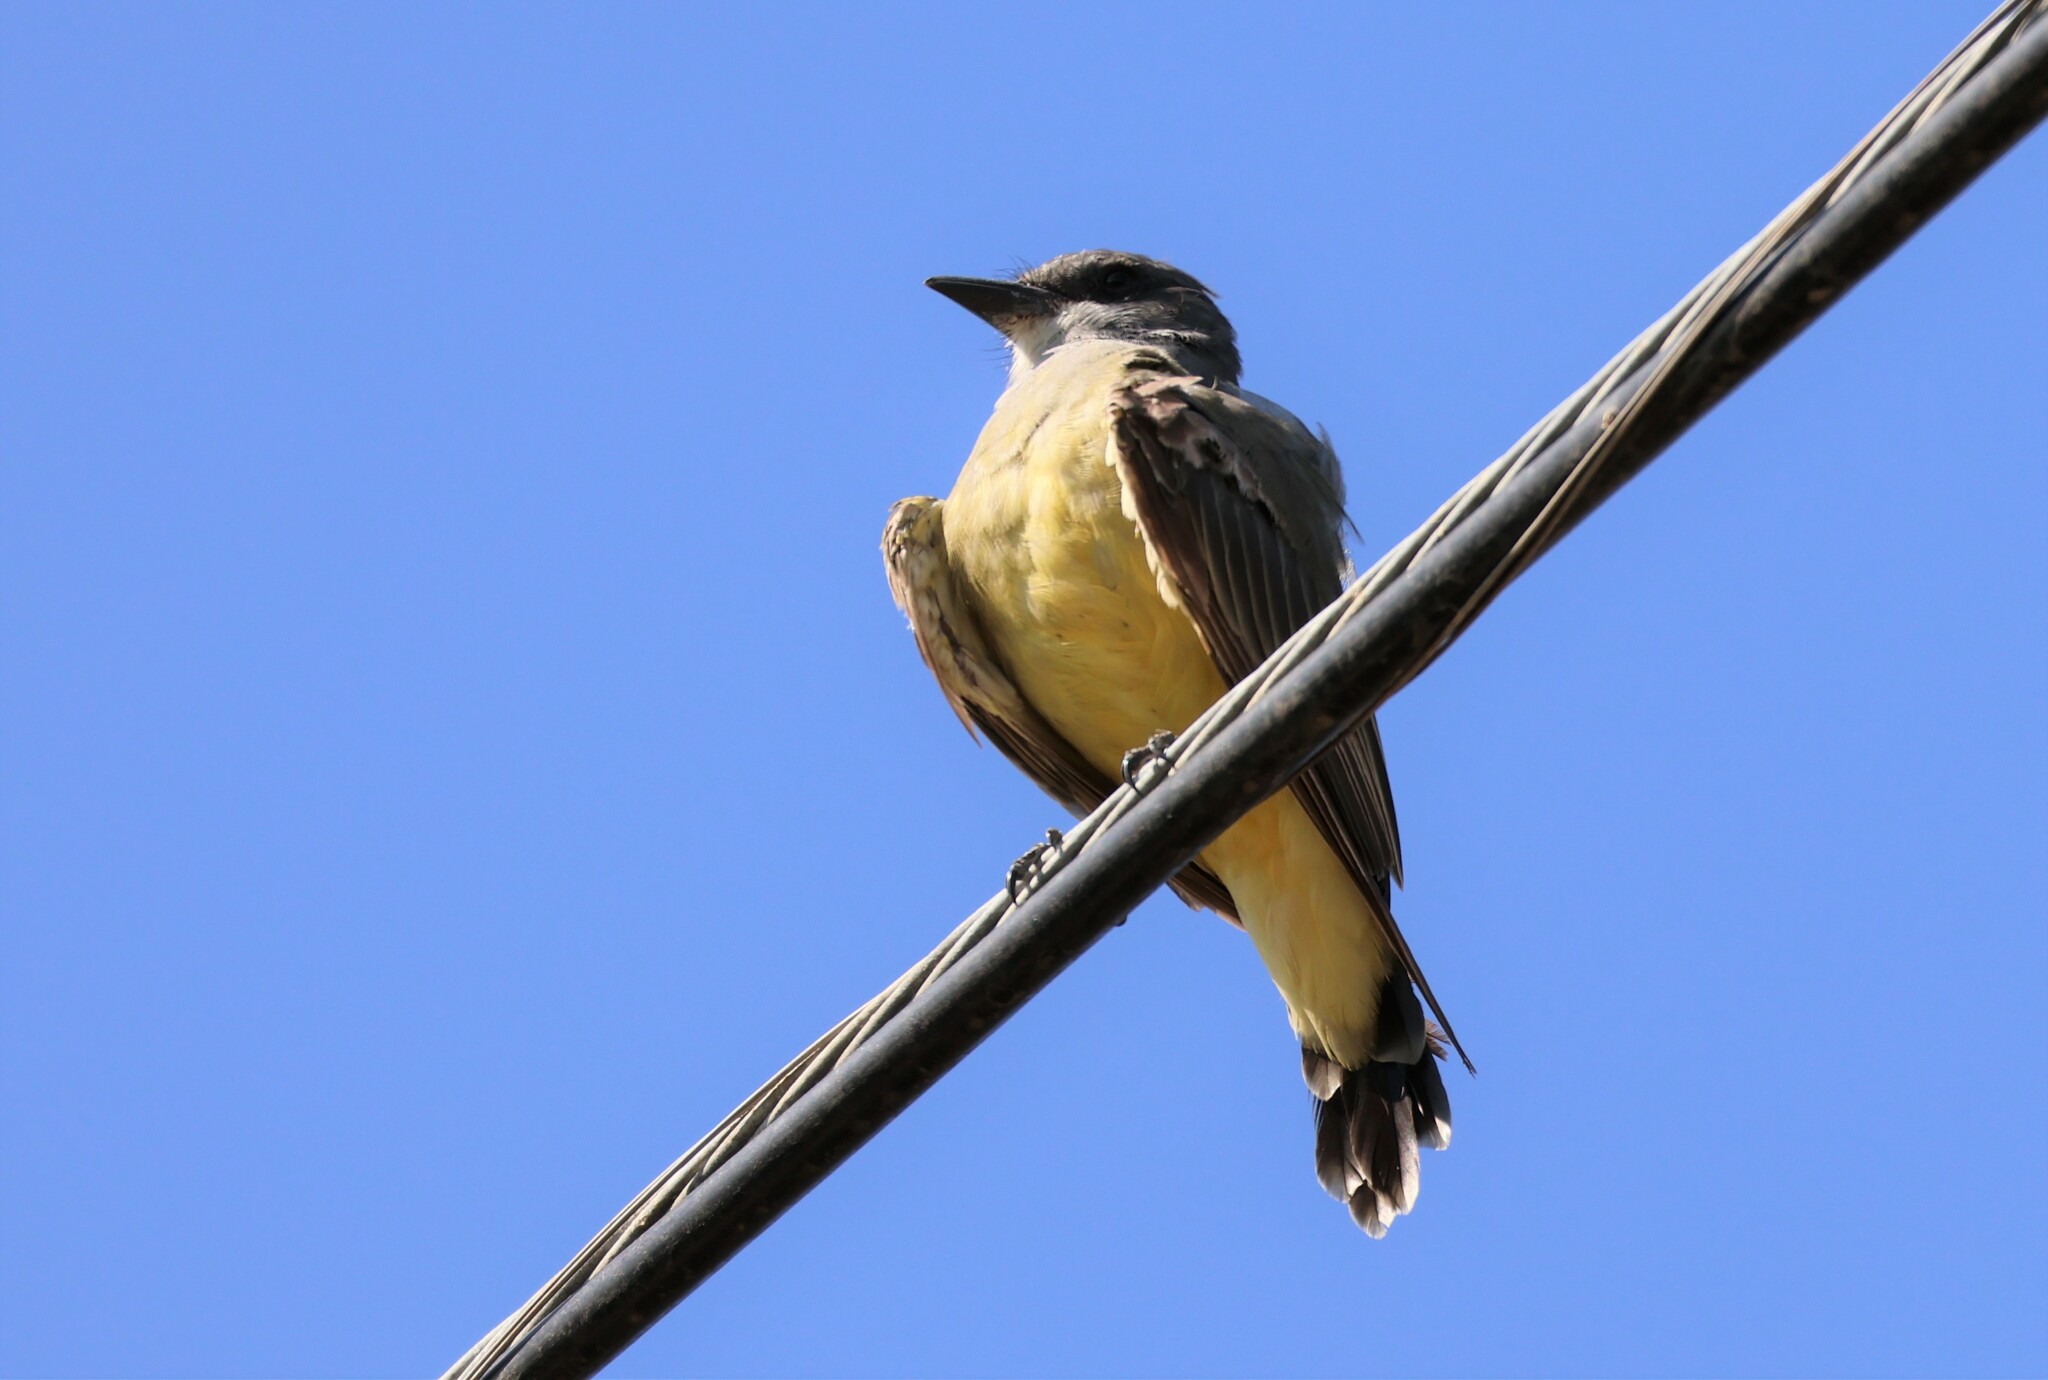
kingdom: Animalia
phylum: Chordata
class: Aves
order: Passeriformes
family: Tyrannidae
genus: Tyrannus
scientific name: Tyrannus vociferans
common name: Cassin's kingbird
